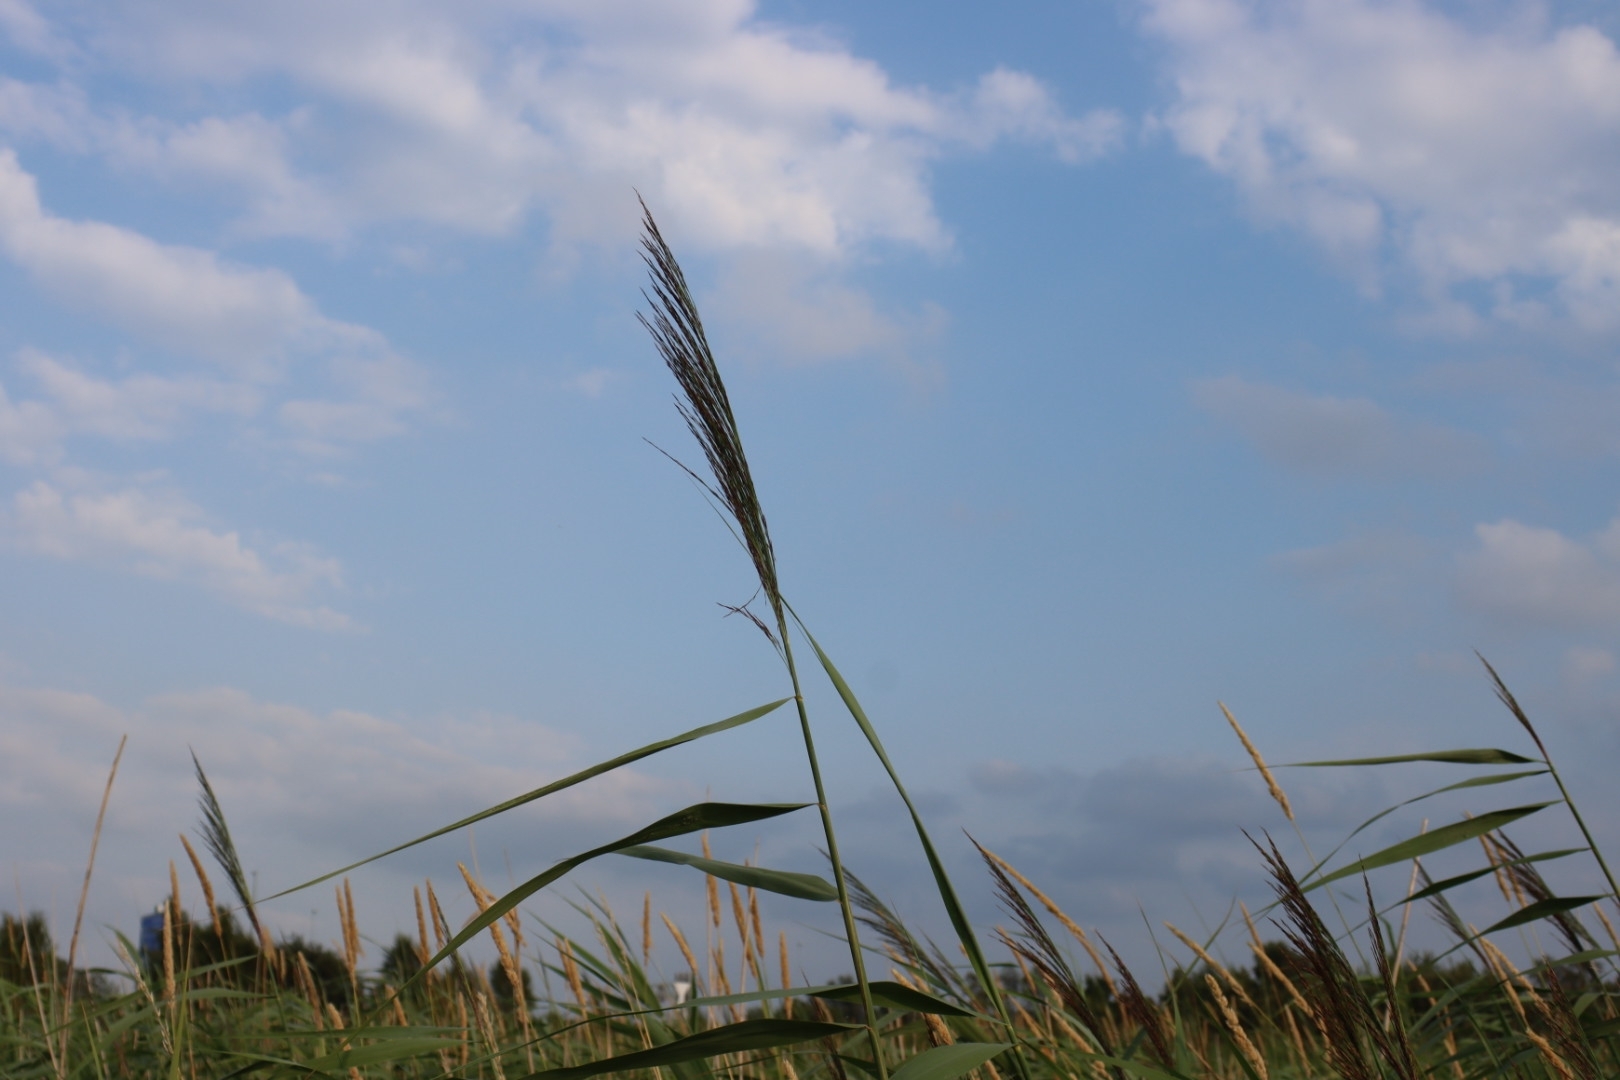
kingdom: Plantae
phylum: Tracheophyta
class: Liliopsida
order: Poales
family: Poaceae
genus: Phragmites
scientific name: Phragmites australis
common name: Common reed
